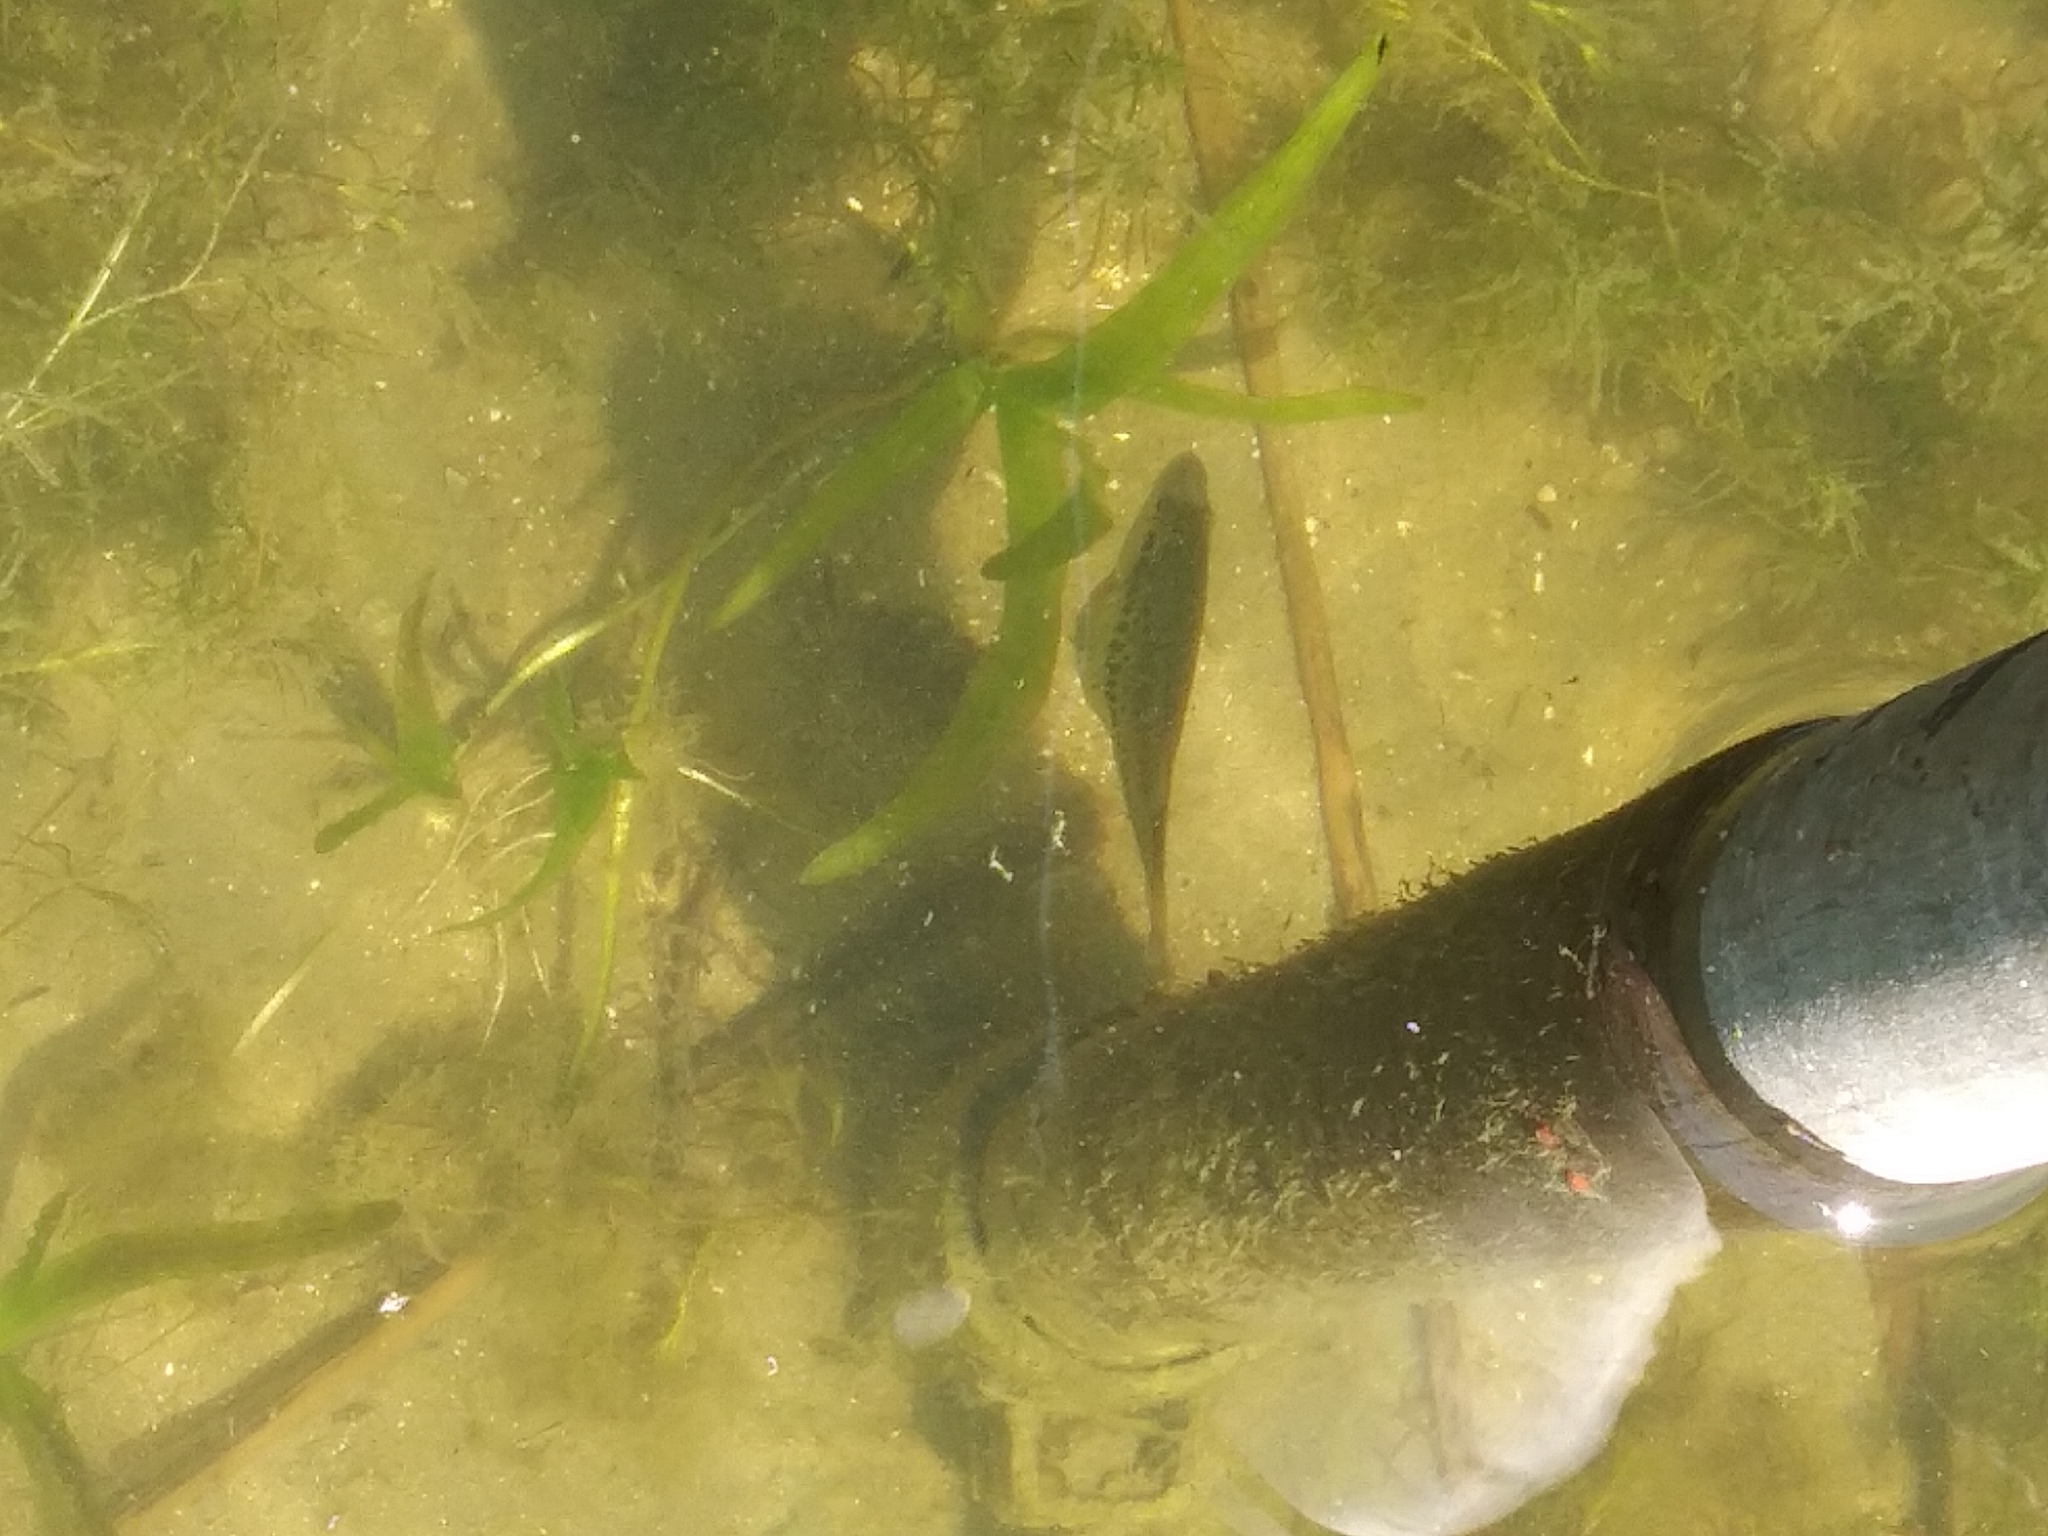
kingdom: Animalia
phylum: Chordata
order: Perciformes
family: Centrarchidae
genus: Micropterus
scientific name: Micropterus
